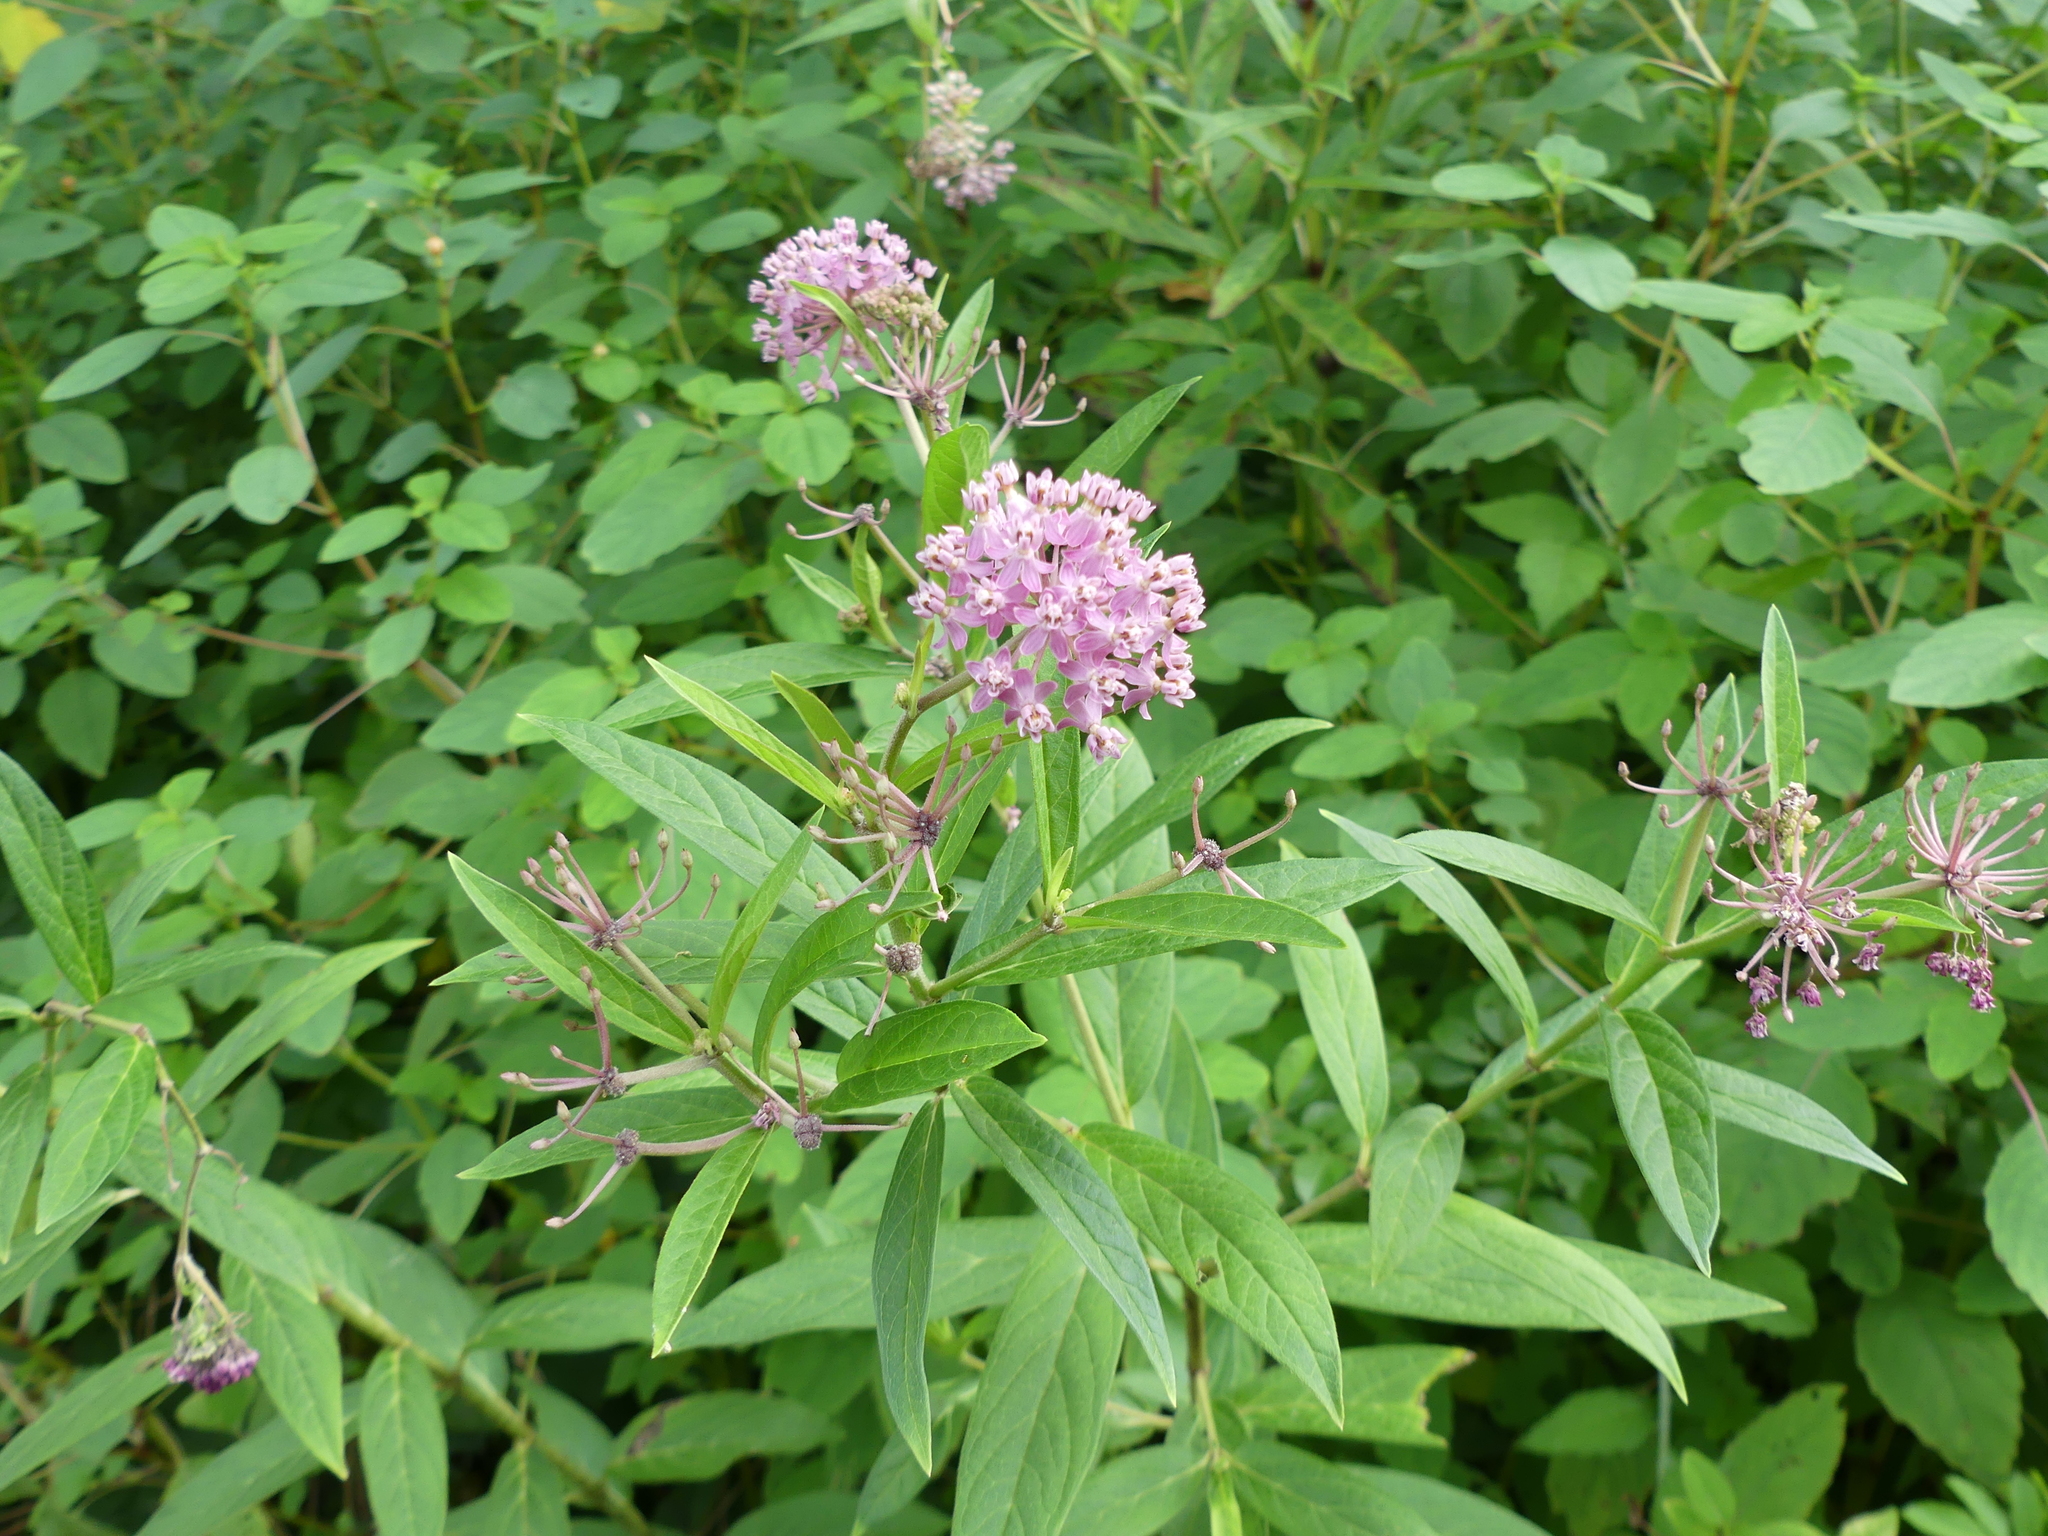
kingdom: Plantae
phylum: Tracheophyta
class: Magnoliopsida
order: Gentianales
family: Apocynaceae
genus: Asclepias
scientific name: Asclepias incarnata
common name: Swamp milkweed
